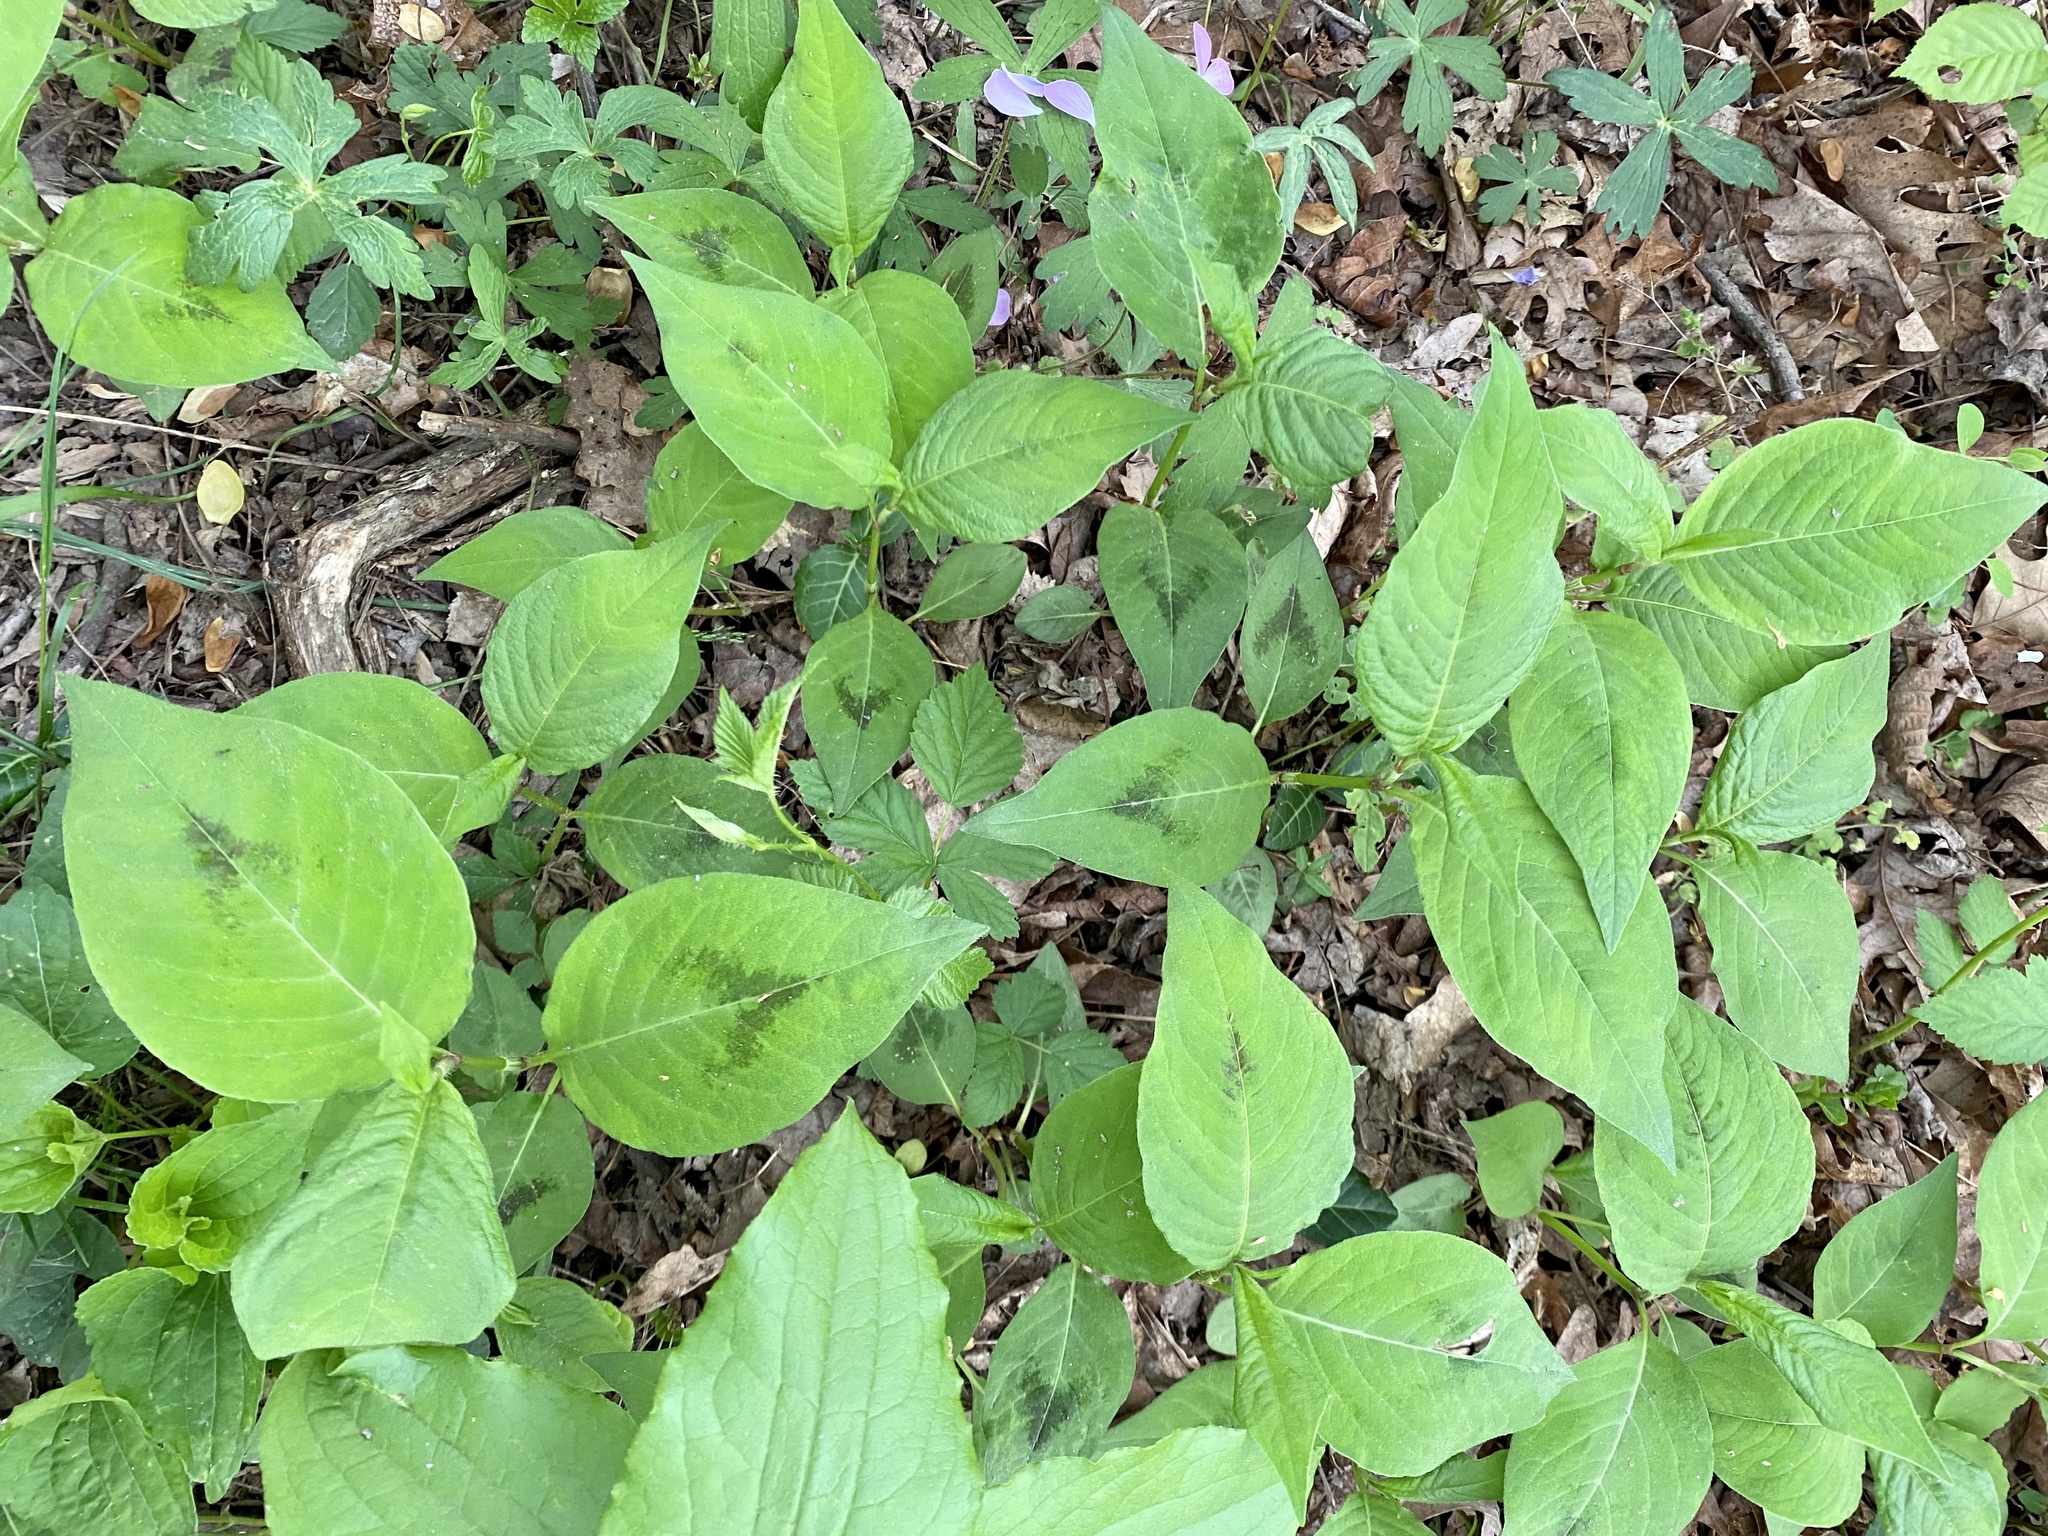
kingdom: Plantae
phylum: Tracheophyta
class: Magnoliopsida
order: Caryophyllales
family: Polygonaceae
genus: Persicaria
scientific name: Persicaria virginiana
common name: Jumpseed
